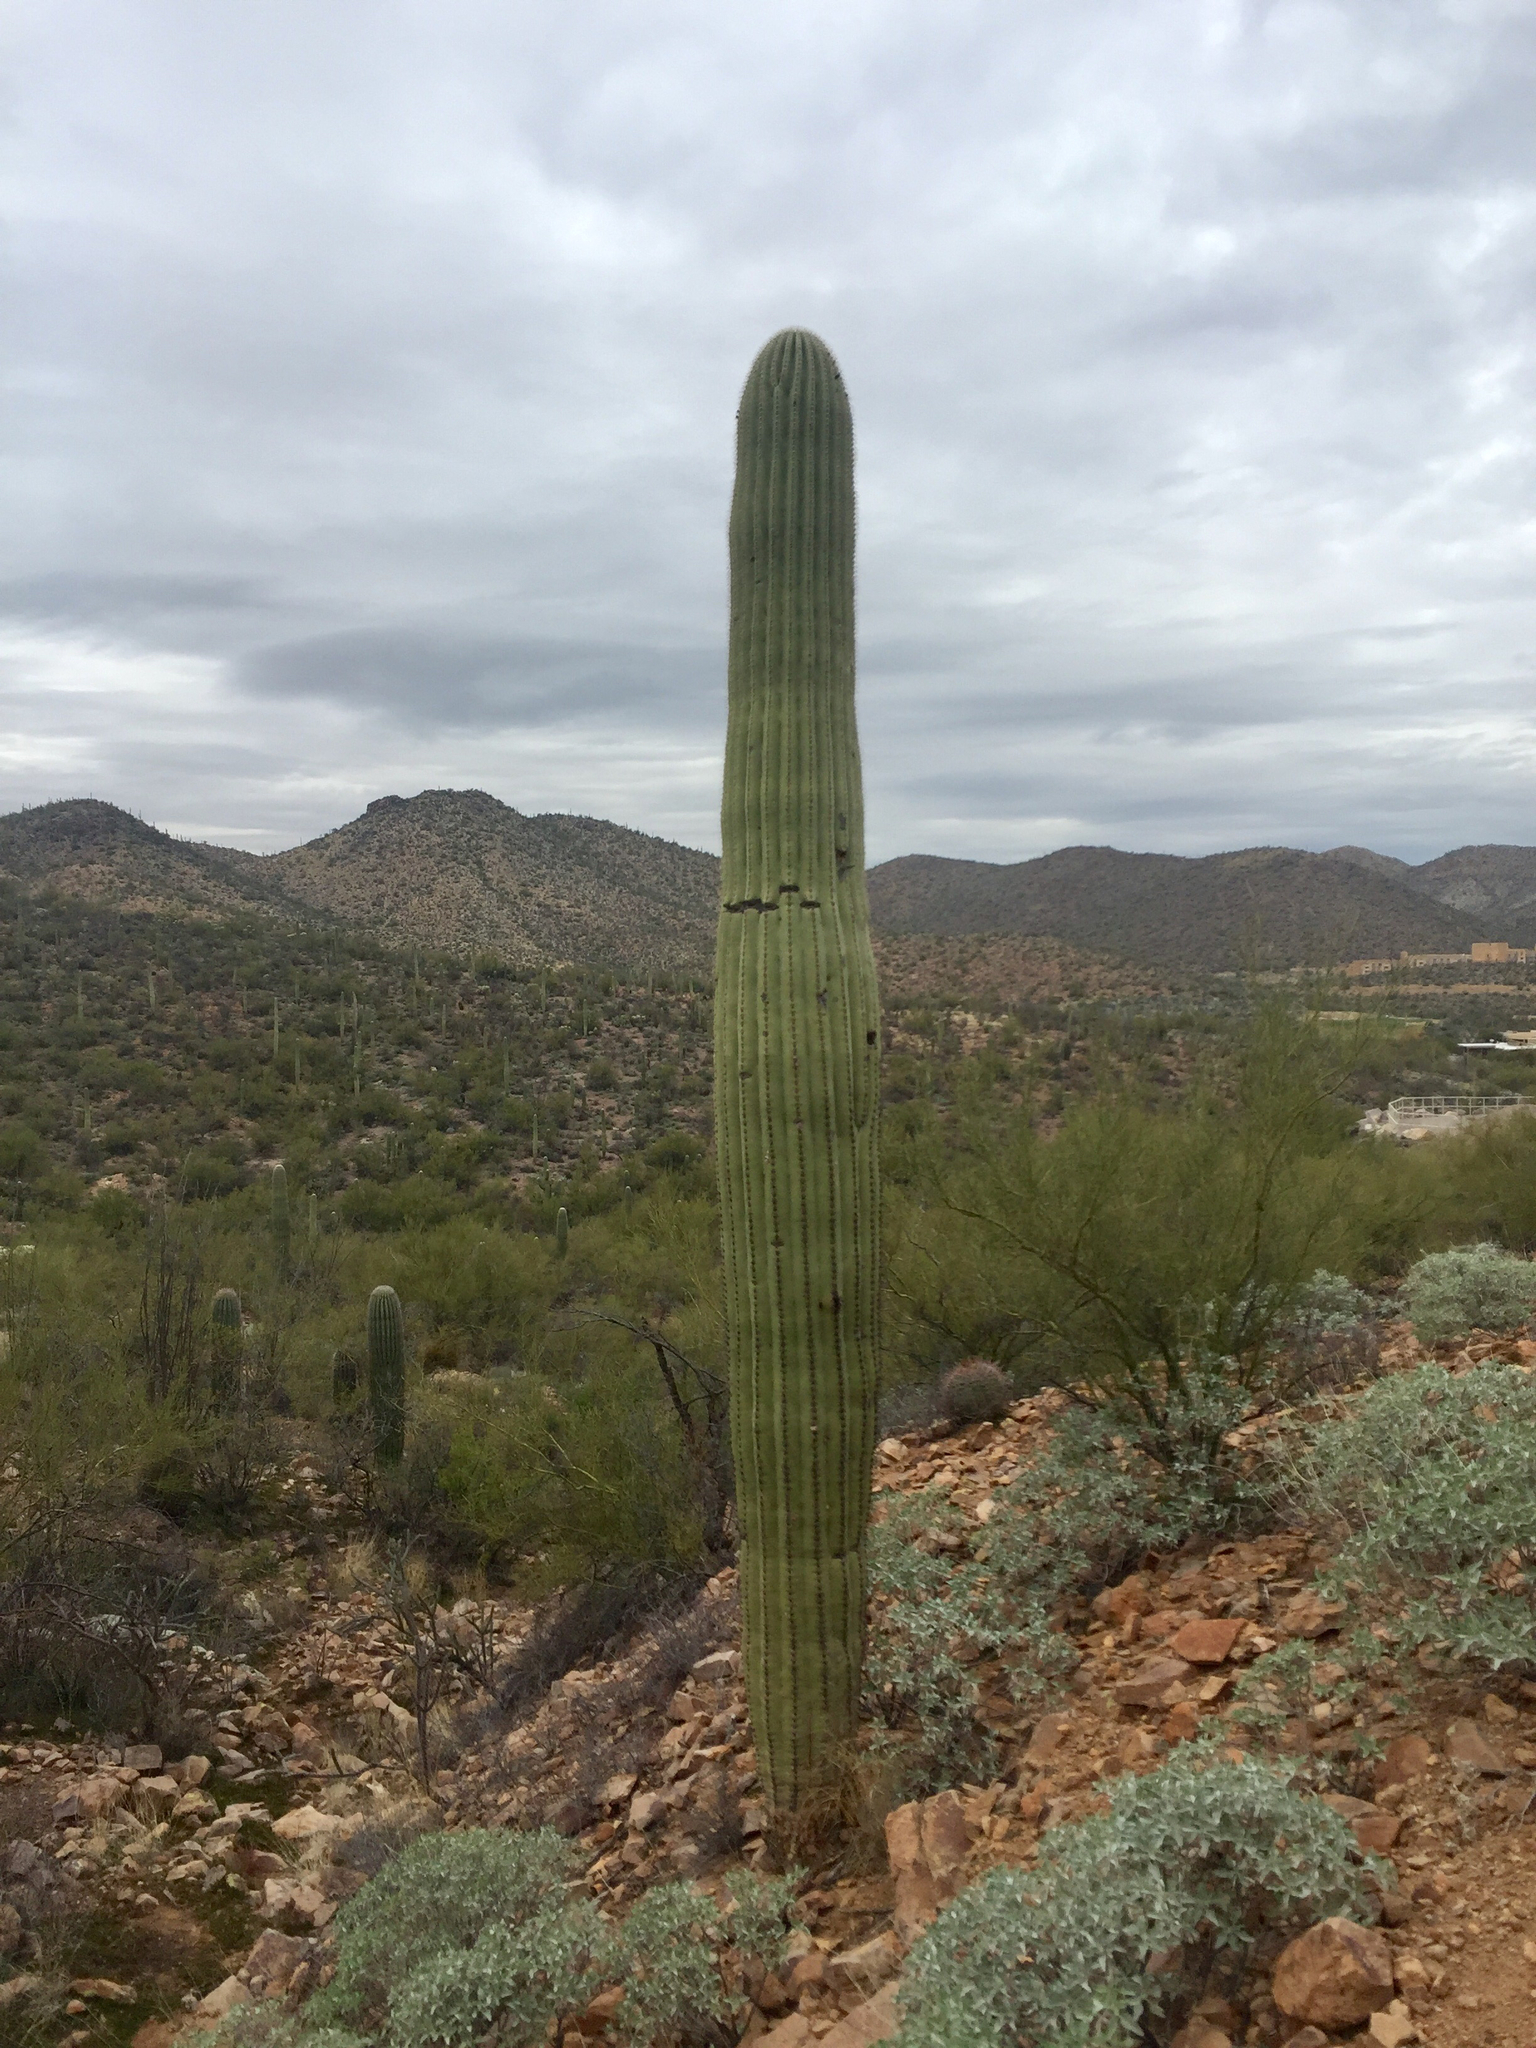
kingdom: Plantae
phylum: Tracheophyta
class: Magnoliopsida
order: Caryophyllales
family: Cactaceae
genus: Carnegiea
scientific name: Carnegiea gigantea
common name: Saguaro
